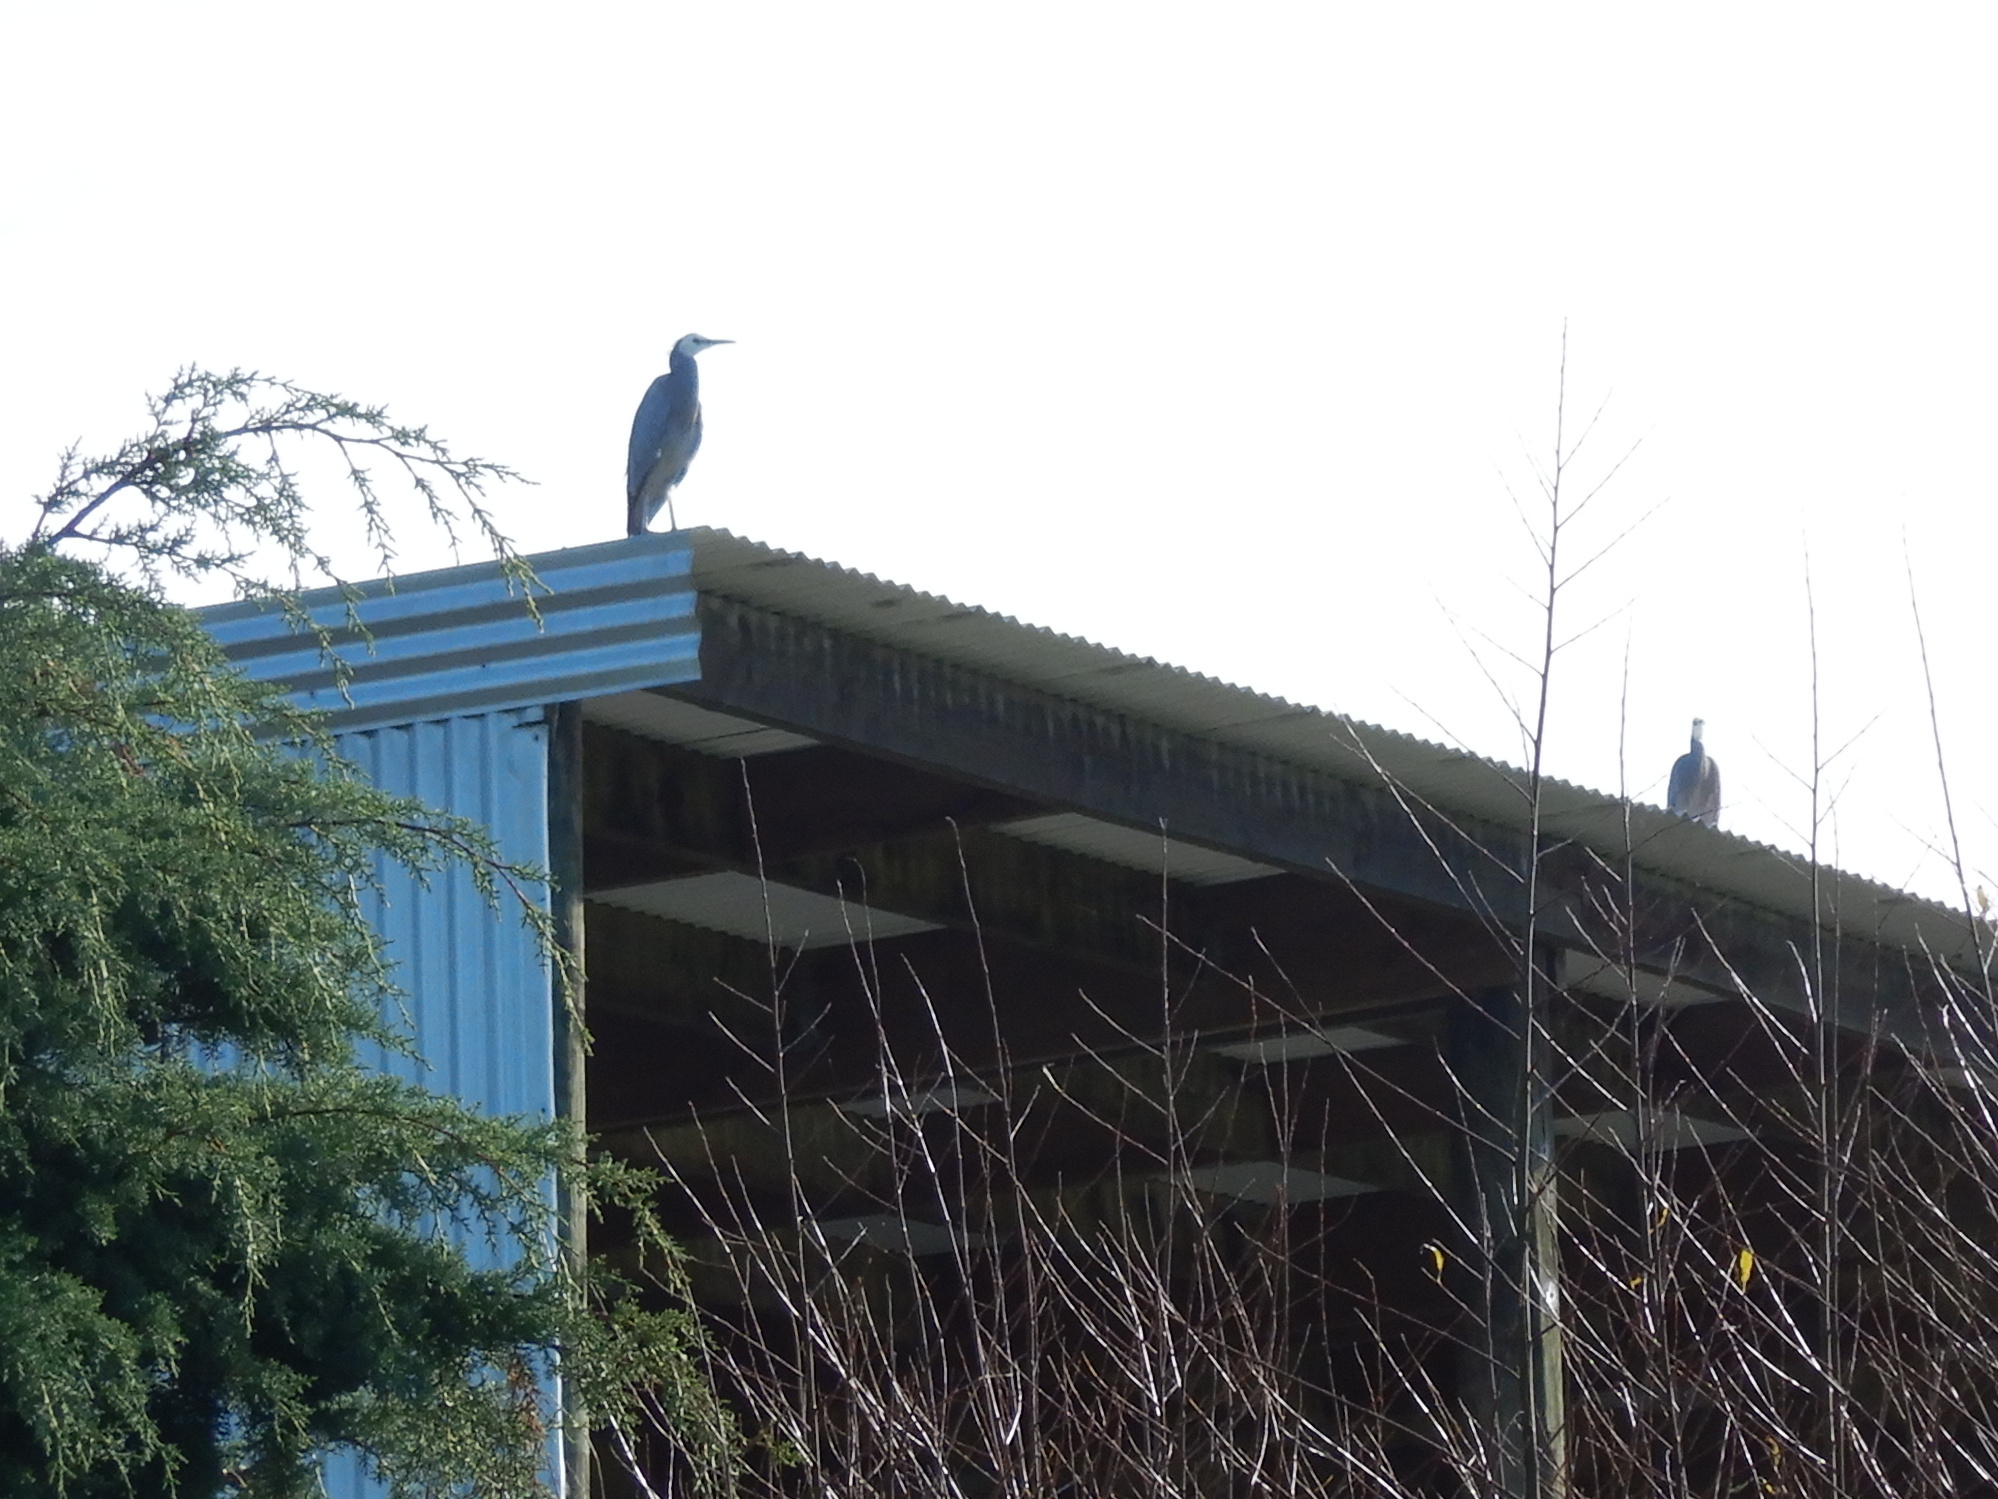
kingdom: Animalia
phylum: Chordata
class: Aves
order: Pelecaniformes
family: Ardeidae
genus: Egretta
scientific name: Egretta novaehollandiae
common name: White-faced heron
